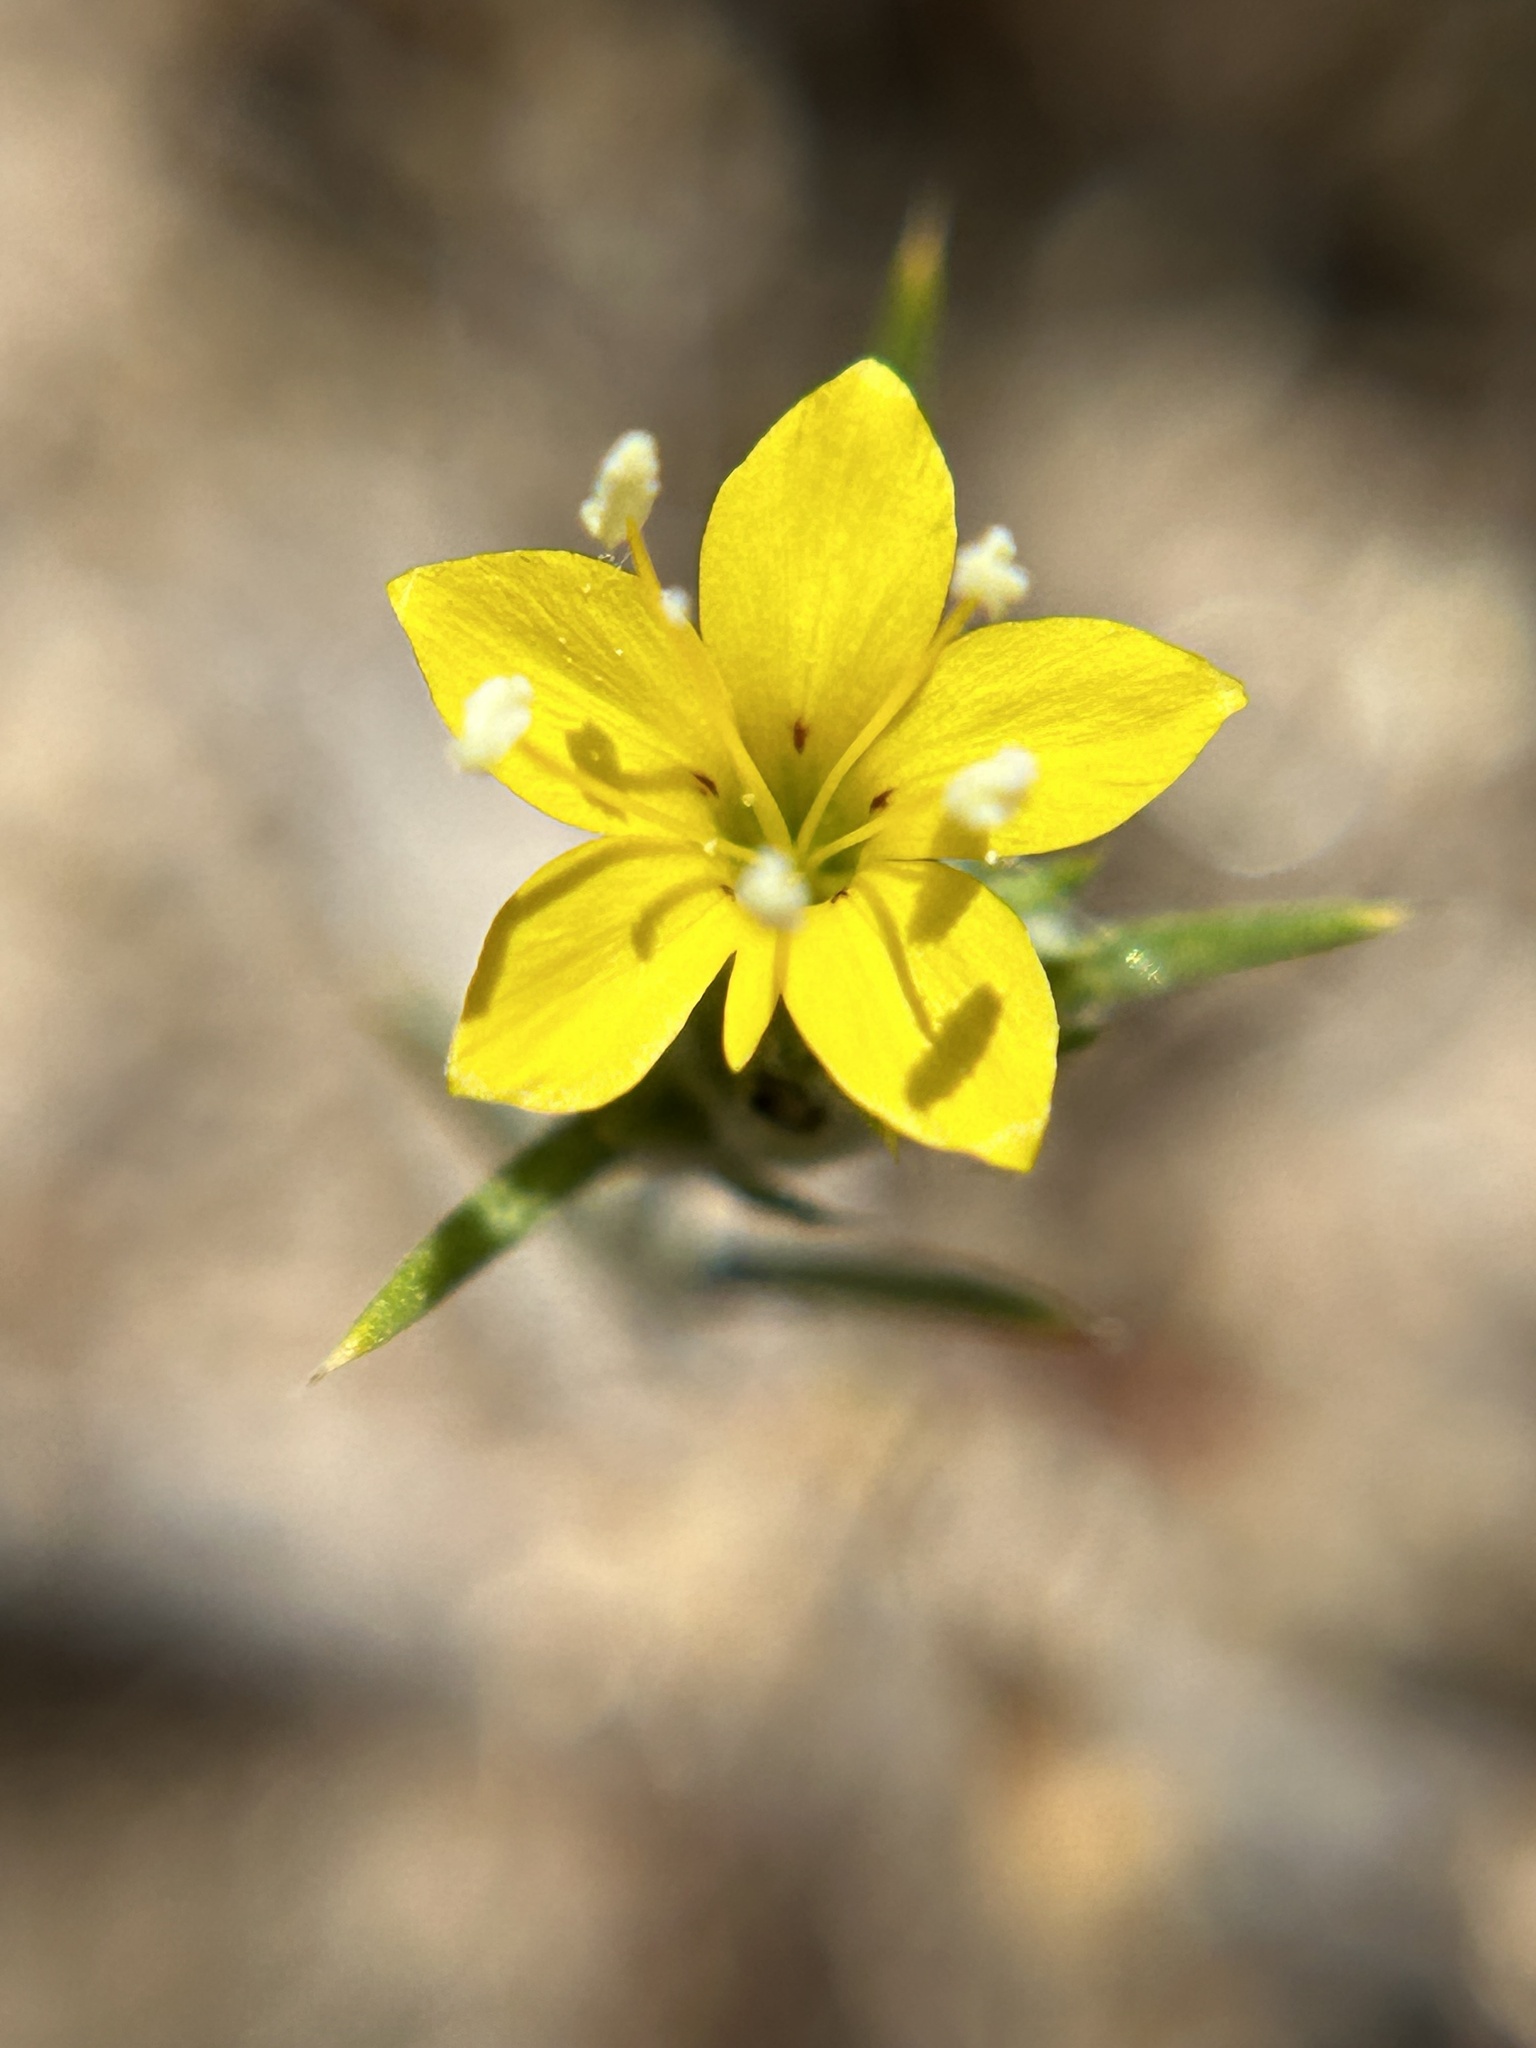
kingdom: Plantae
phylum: Tracheophyta
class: Magnoliopsida
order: Ericales
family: Polemoniaceae
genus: Eriastrum
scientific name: Eriastrum luteum
